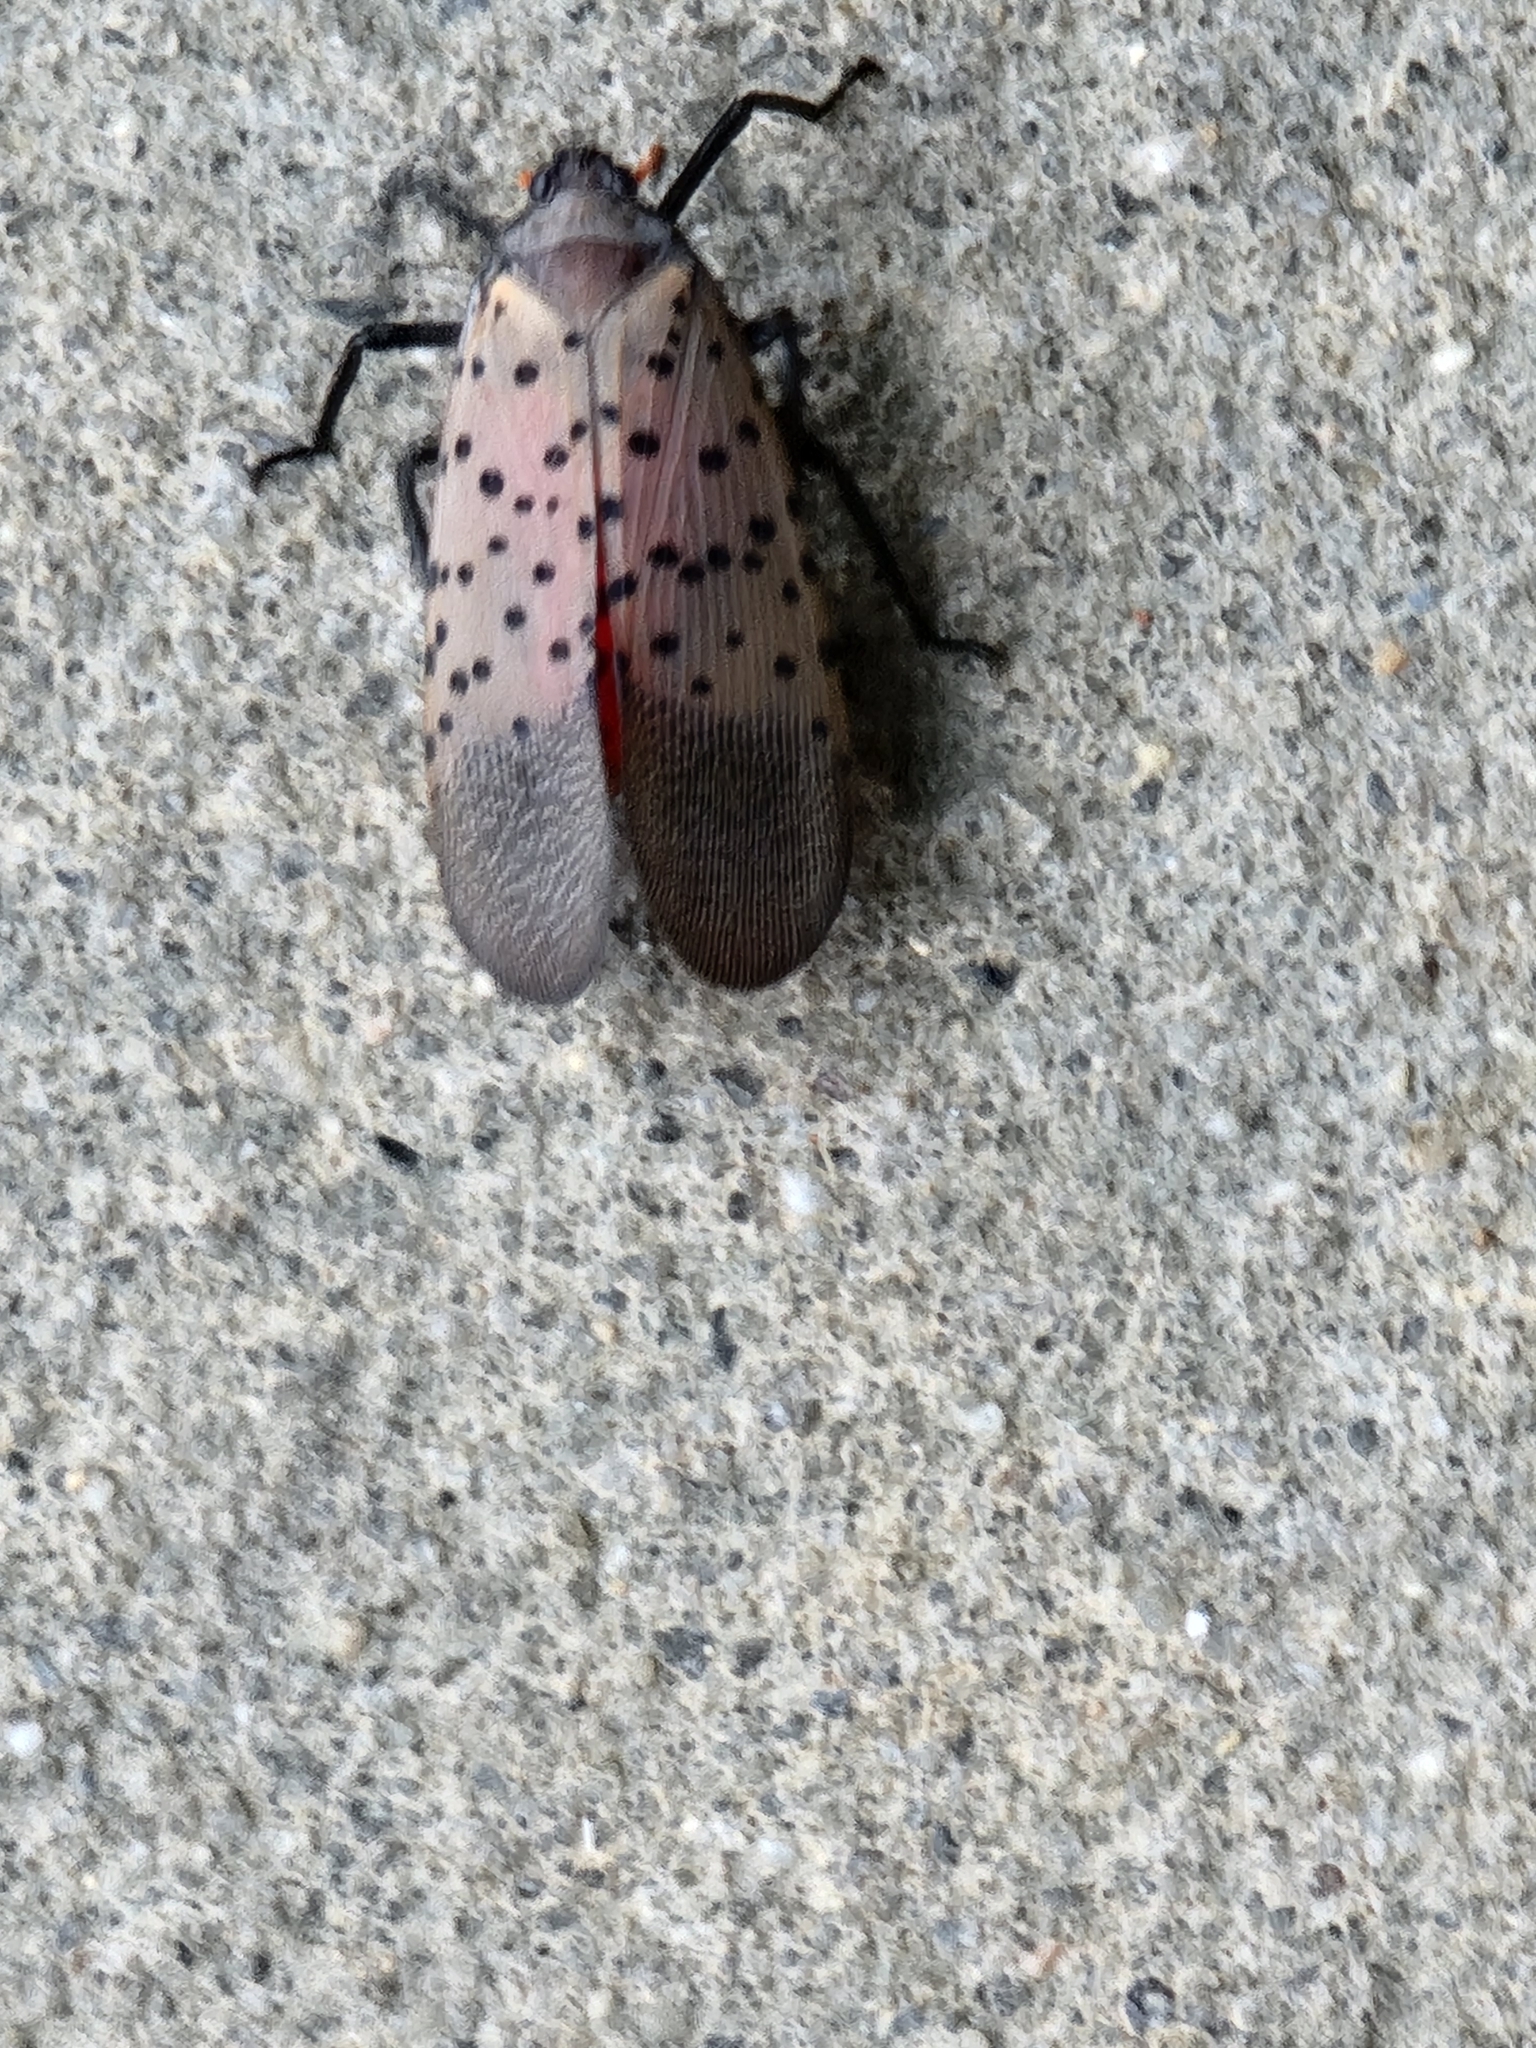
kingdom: Animalia
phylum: Arthropoda
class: Insecta
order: Hemiptera
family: Fulgoridae
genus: Lycorma
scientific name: Lycorma delicatula
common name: Spotted lanternfly
